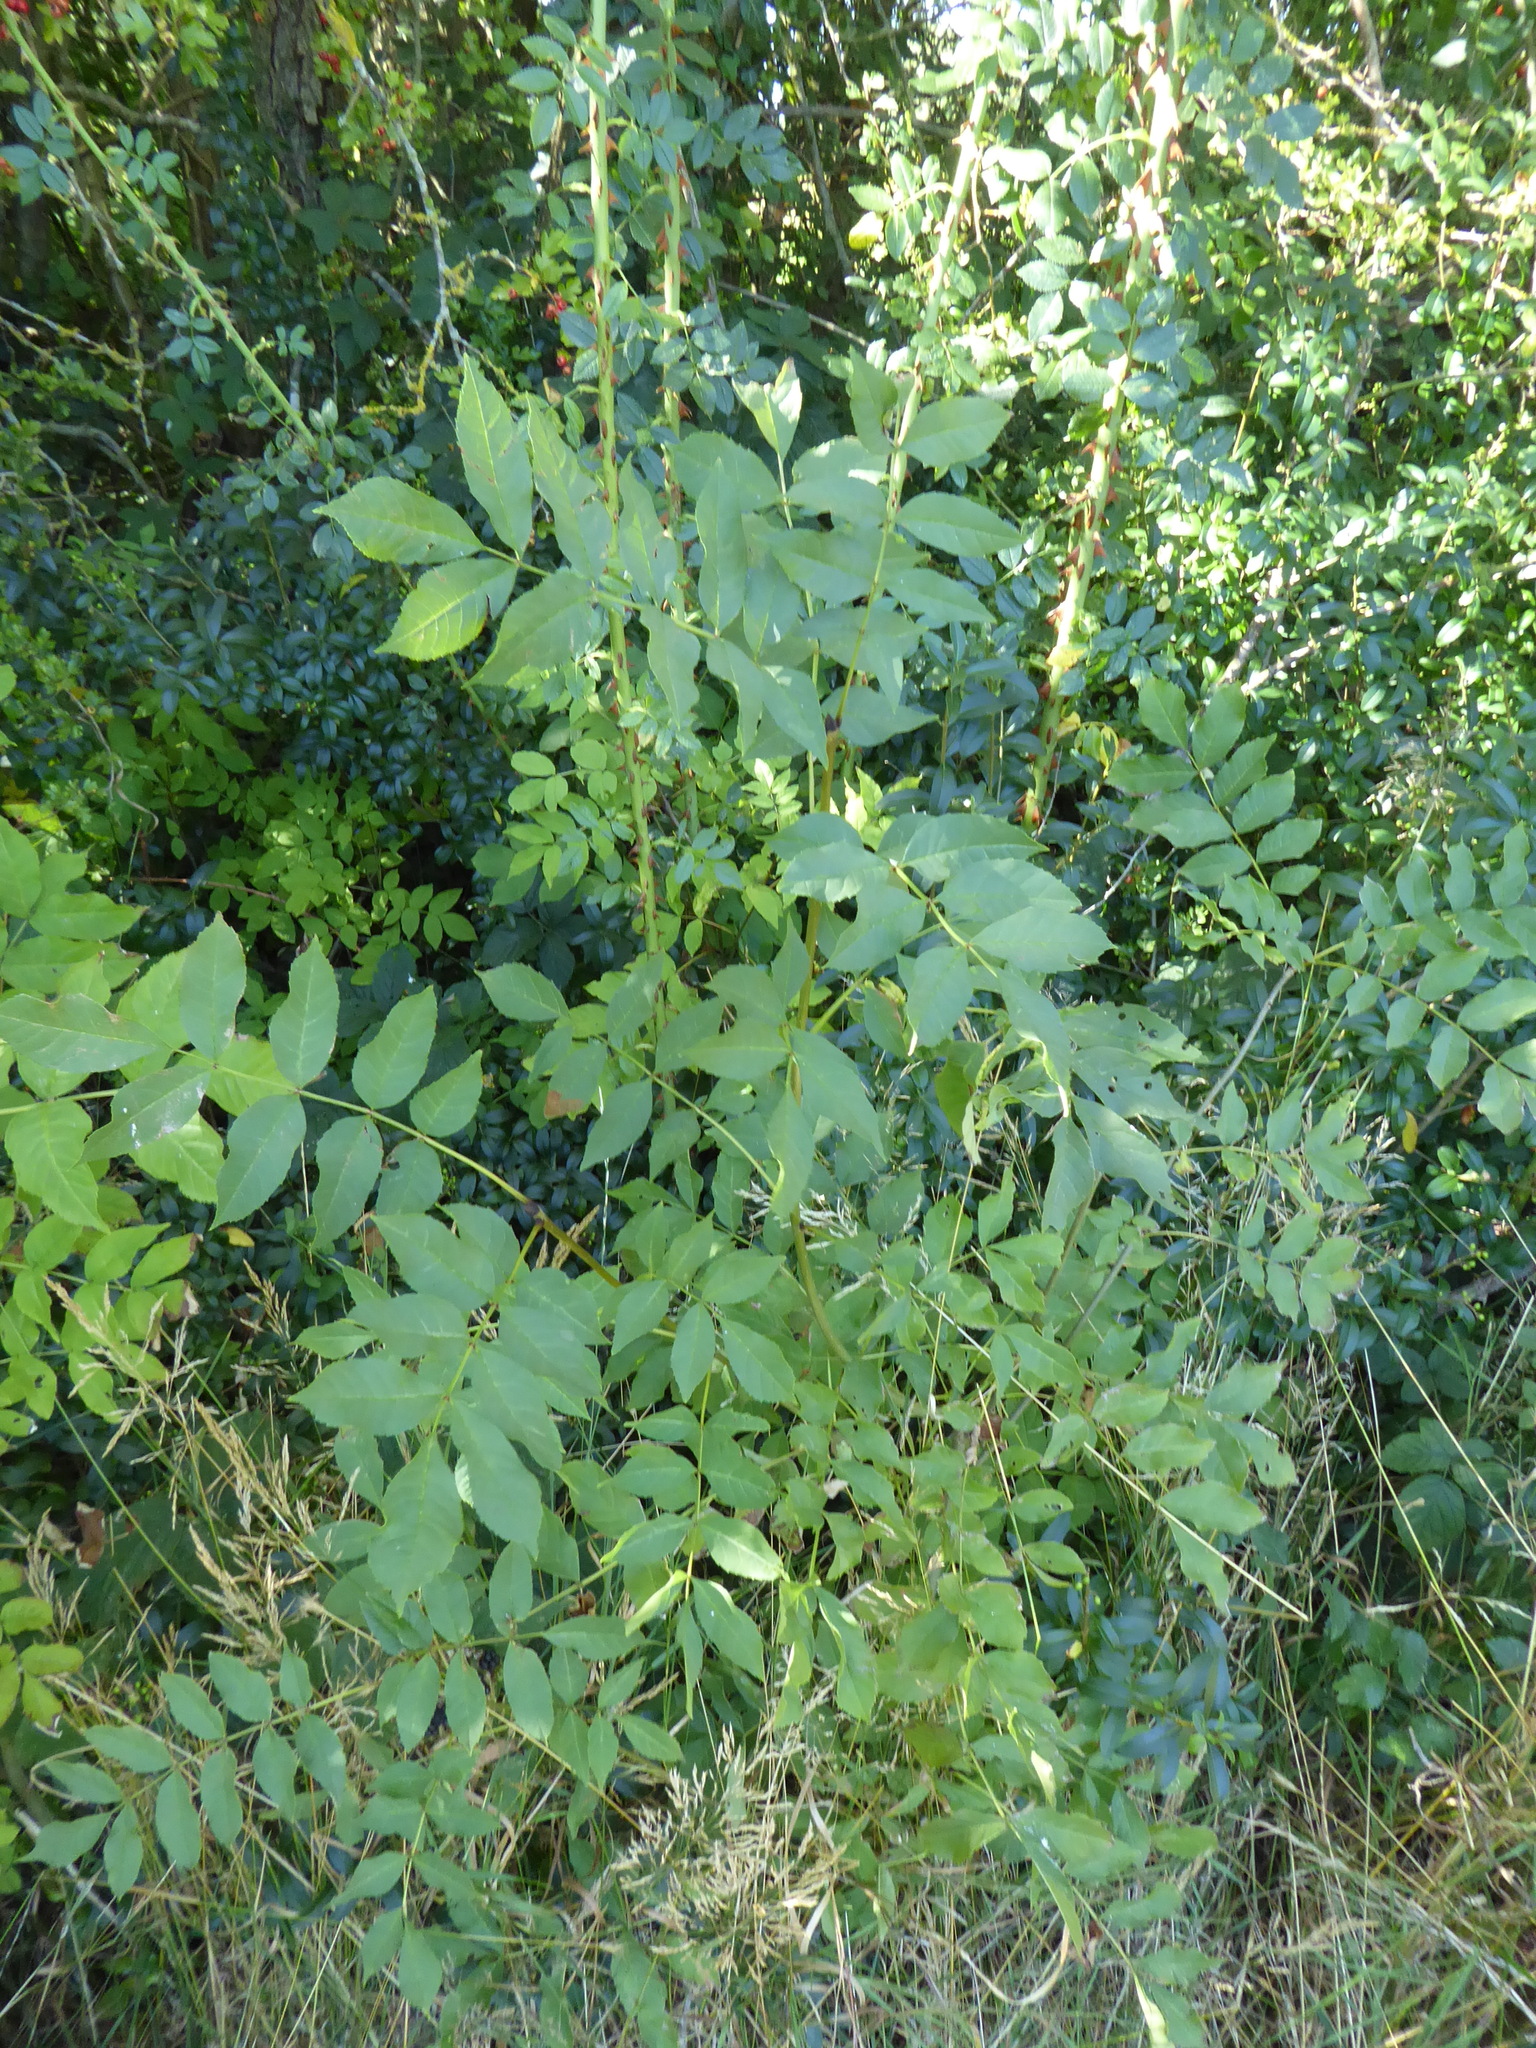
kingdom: Plantae
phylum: Tracheophyta
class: Magnoliopsida
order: Lamiales
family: Oleaceae
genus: Fraxinus
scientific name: Fraxinus excelsior
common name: European ash
